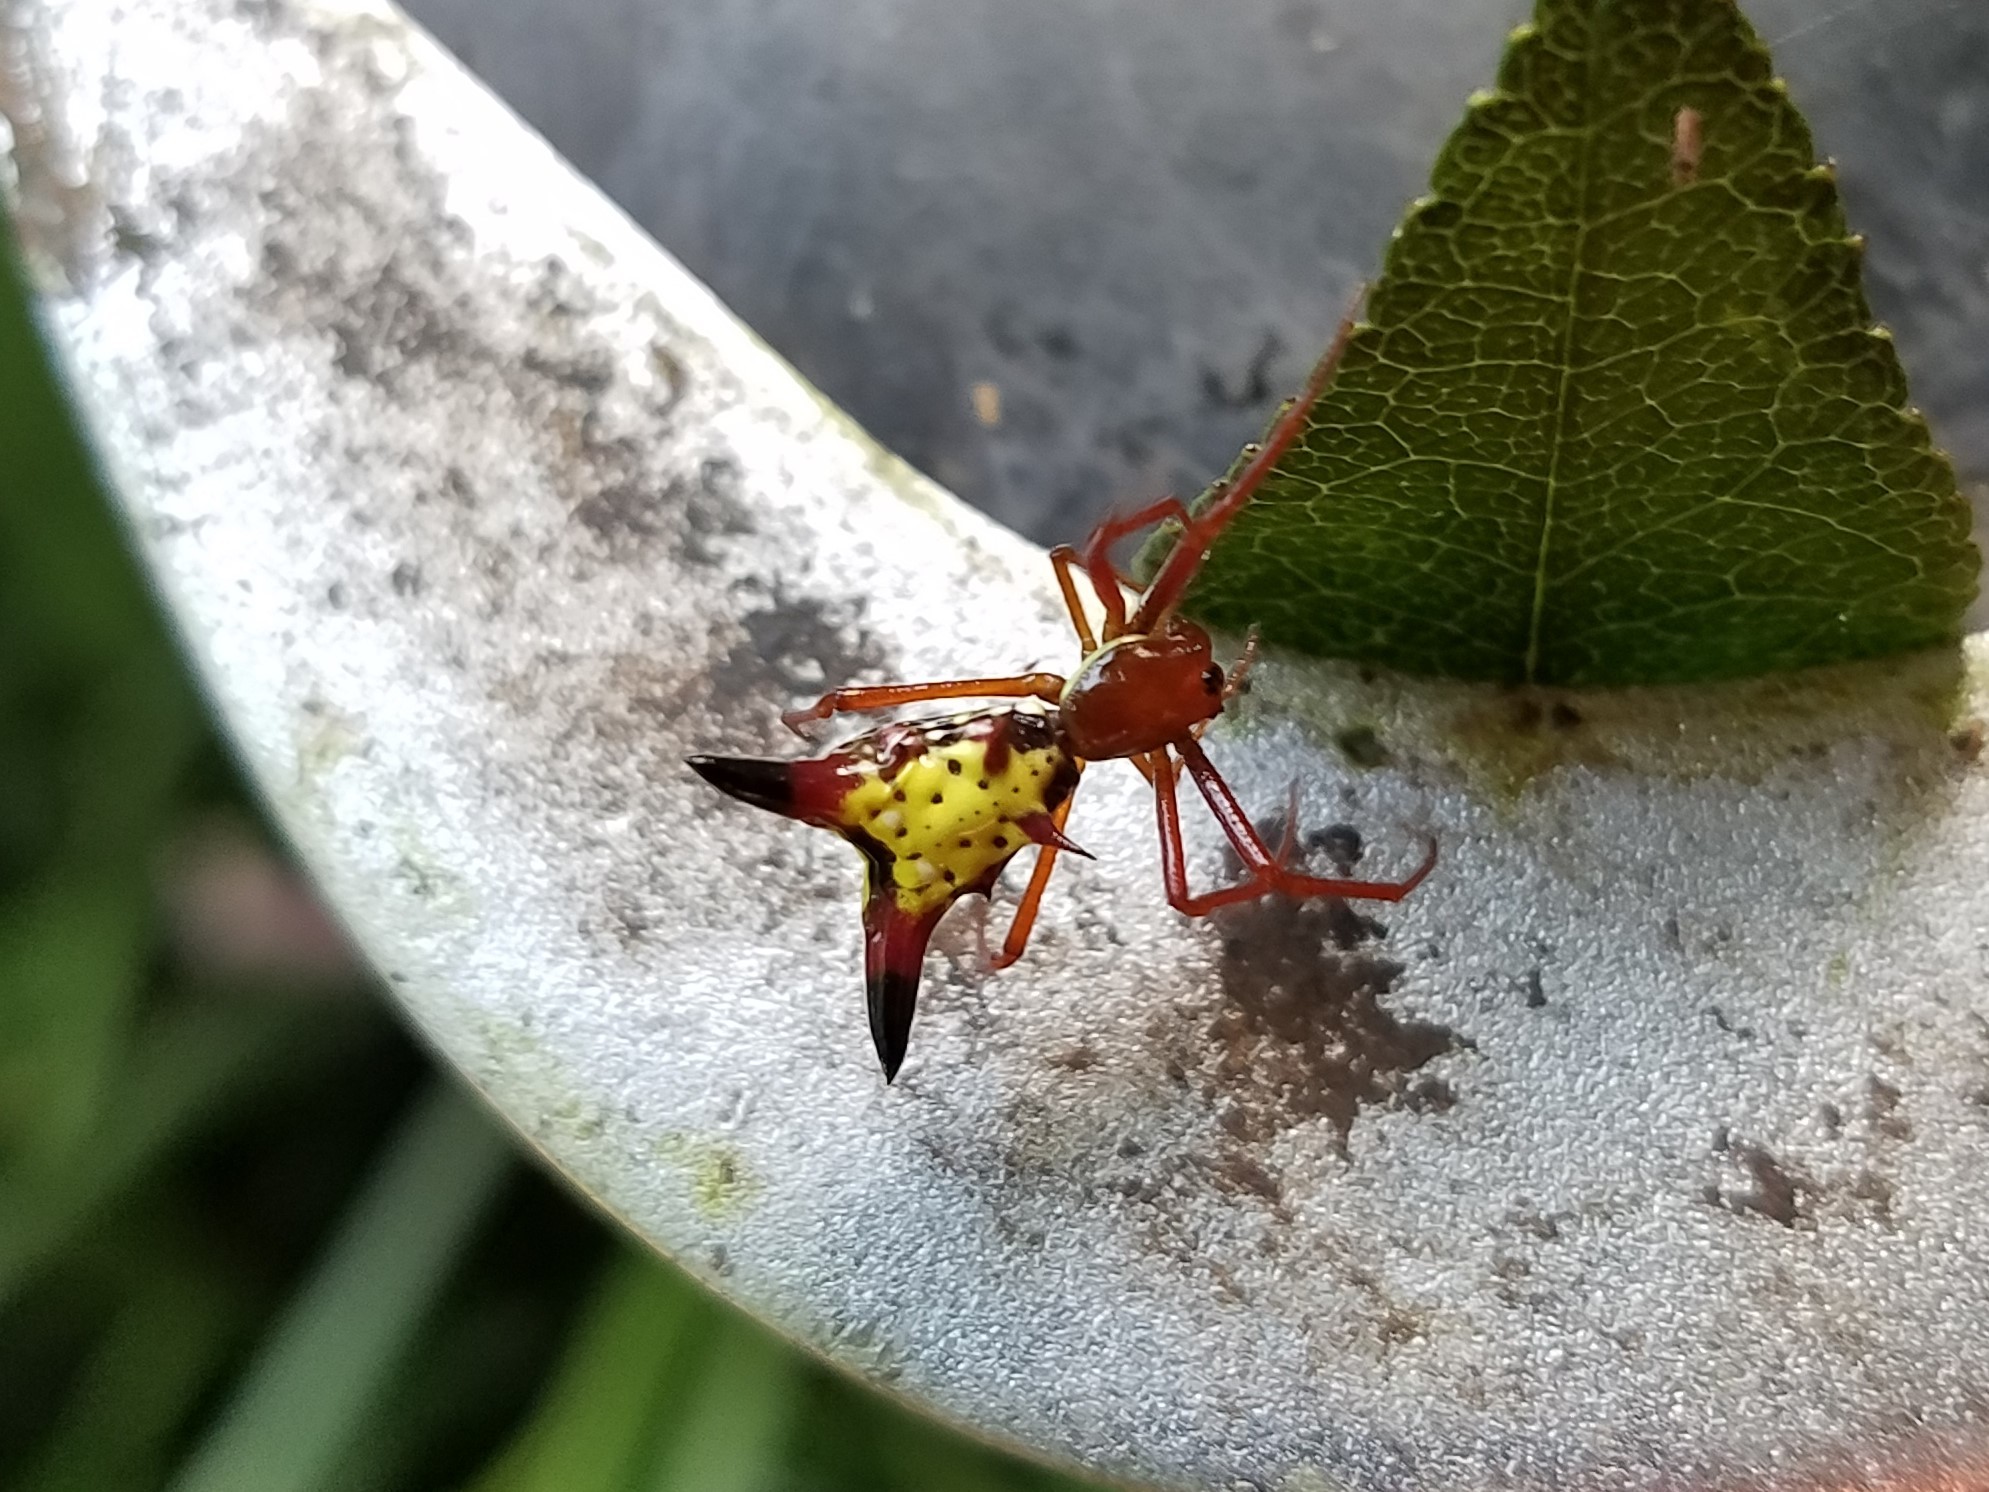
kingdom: Animalia
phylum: Arthropoda
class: Arachnida
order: Araneae
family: Araneidae
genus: Micrathena
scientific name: Micrathena sagittata
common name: Orb weavers
